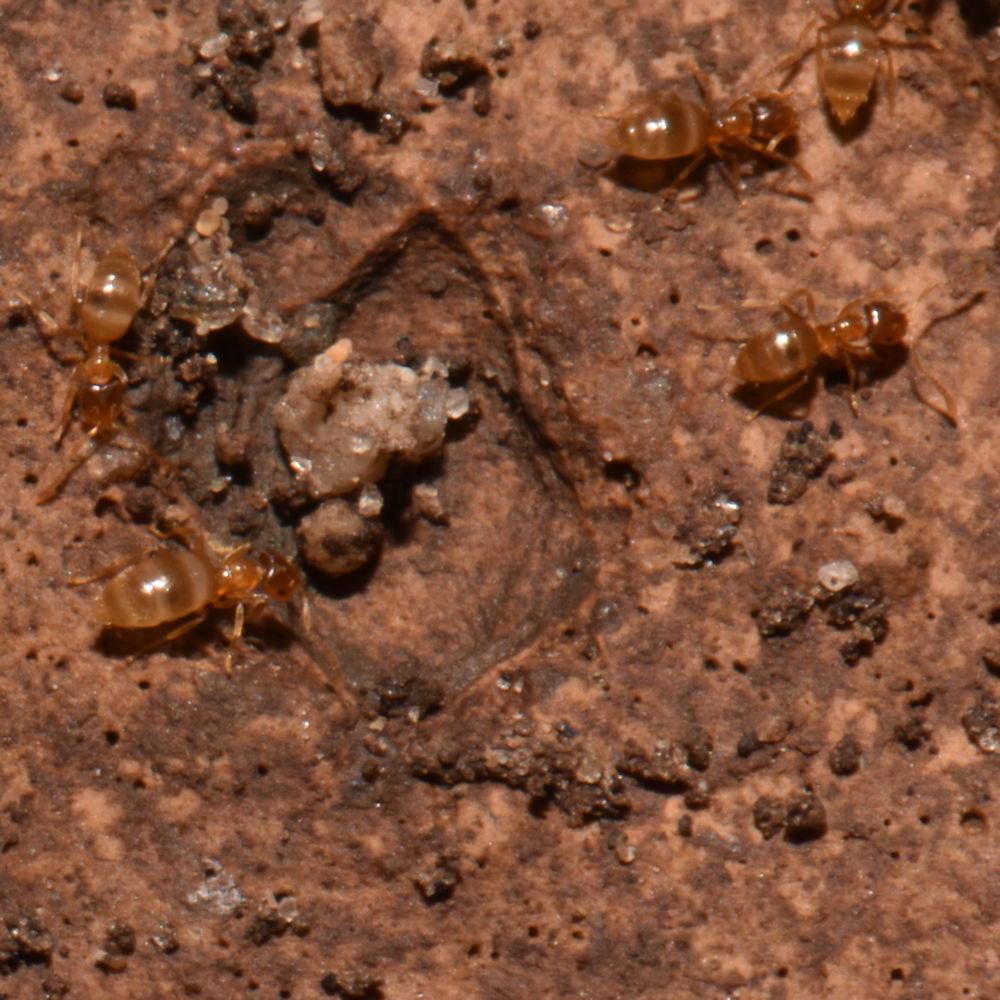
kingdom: Animalia
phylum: Arthropoda
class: Insecta
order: Hymenoptera
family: Formicidae
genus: Brachymyrmex
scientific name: Brachymyrmex depilis
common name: Hairless rover ant
